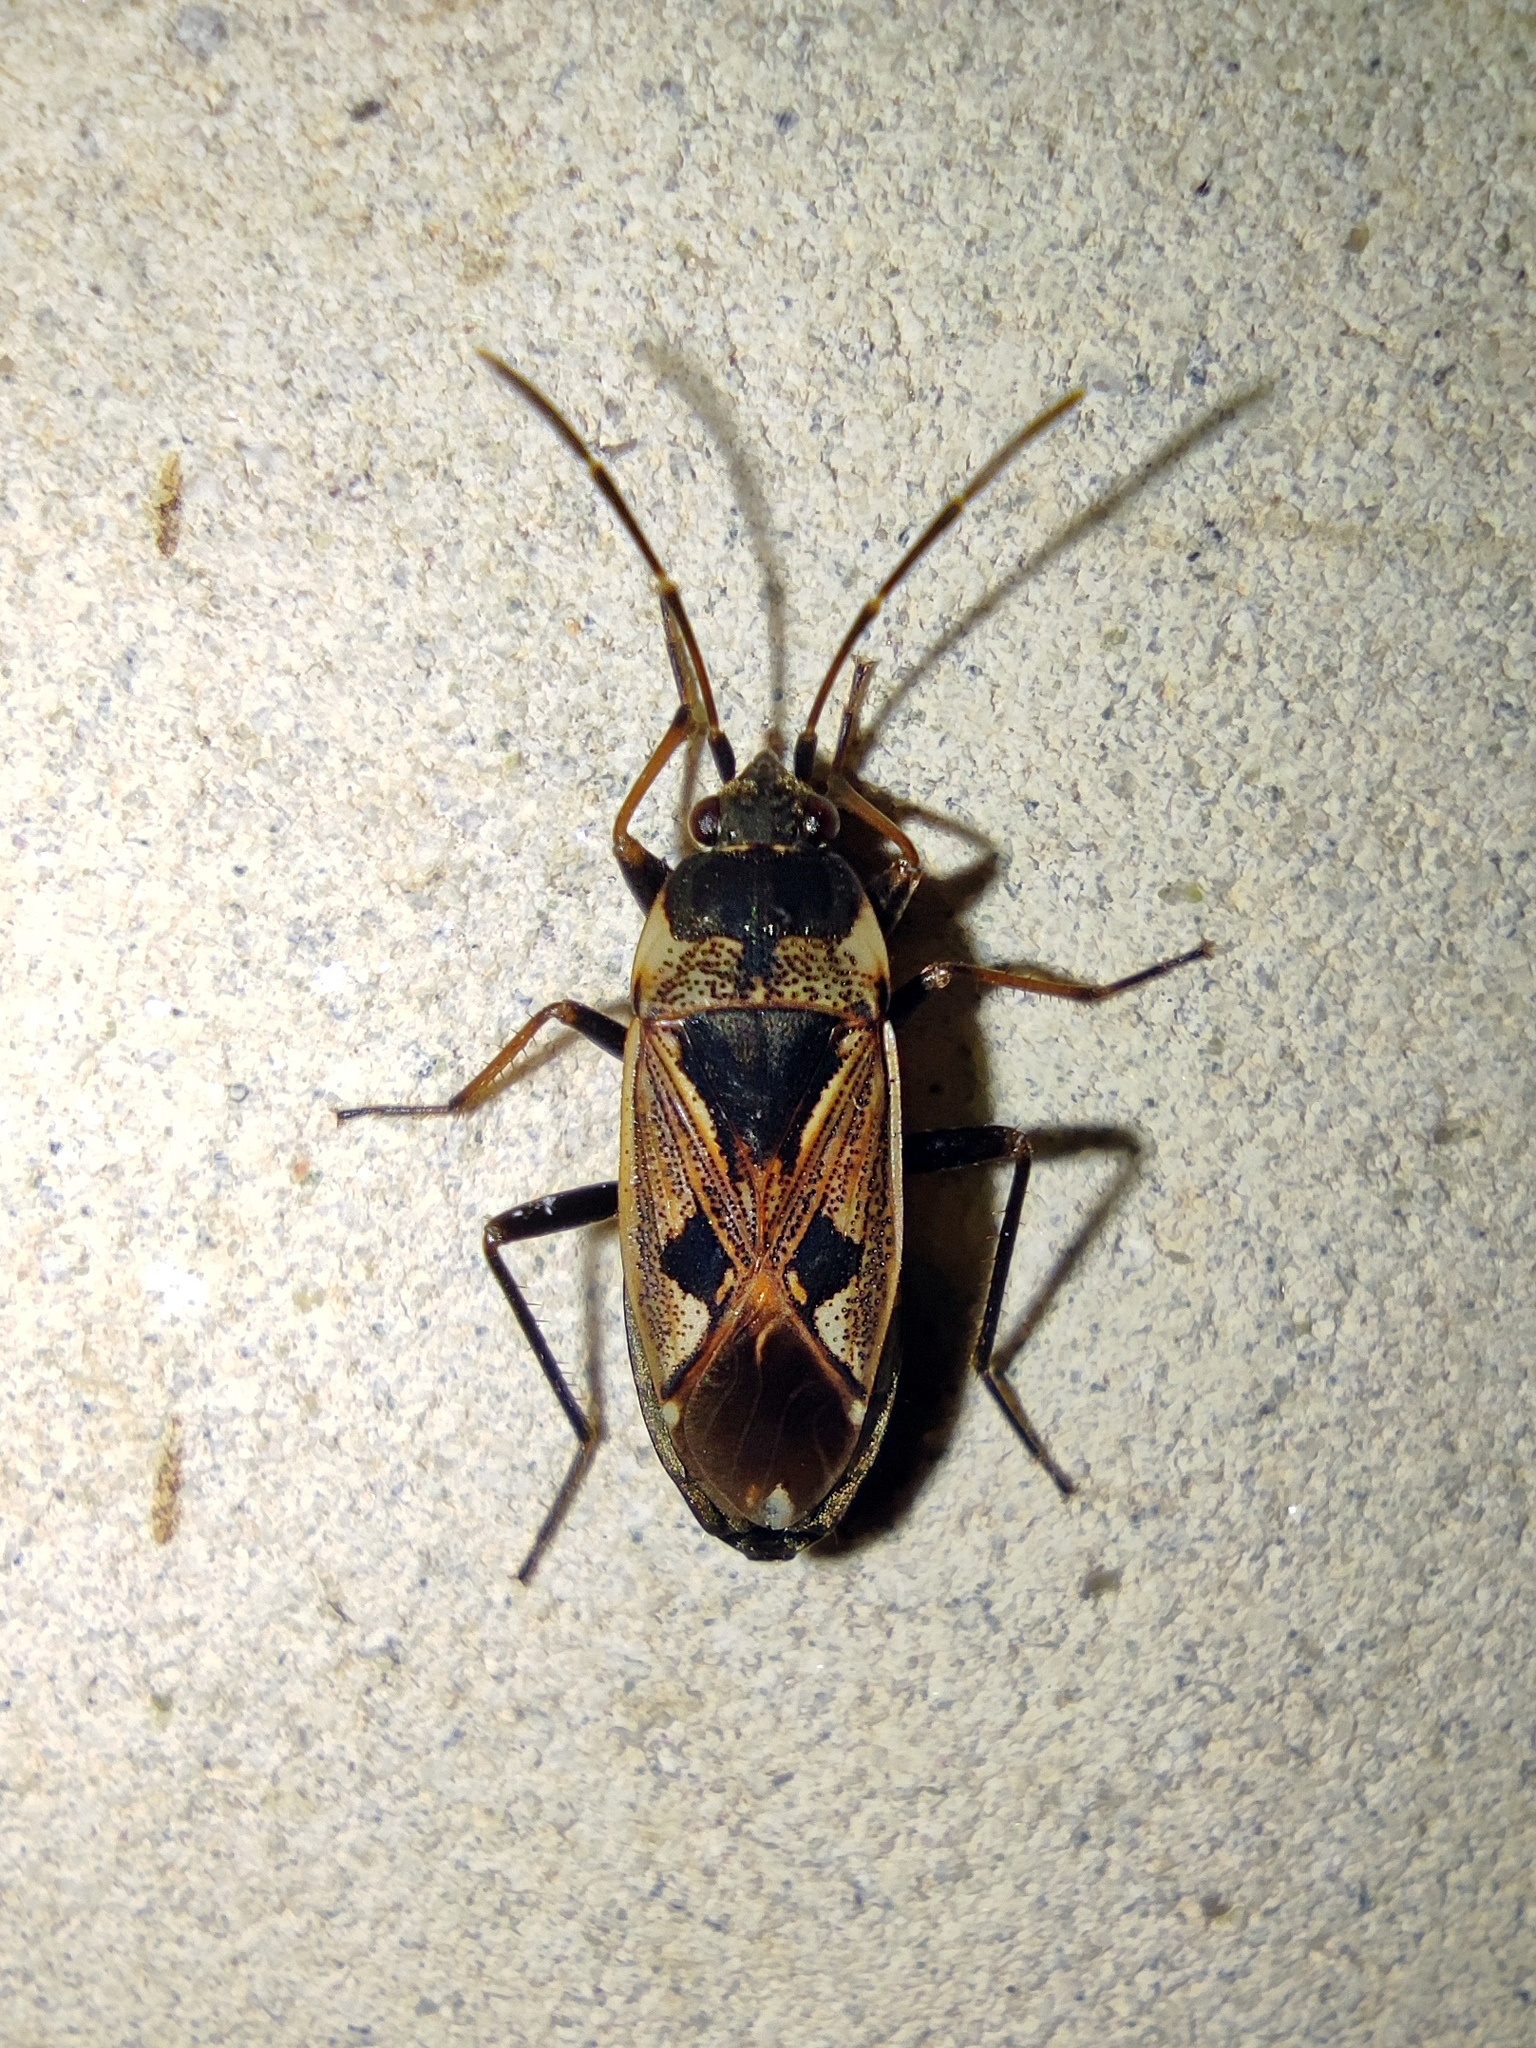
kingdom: Animalia
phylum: Arthropoda
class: Insecta
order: Hemiptera
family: Rhyparochromidae
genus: Rhyparochromus
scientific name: Rhyparochromus vulgaris
